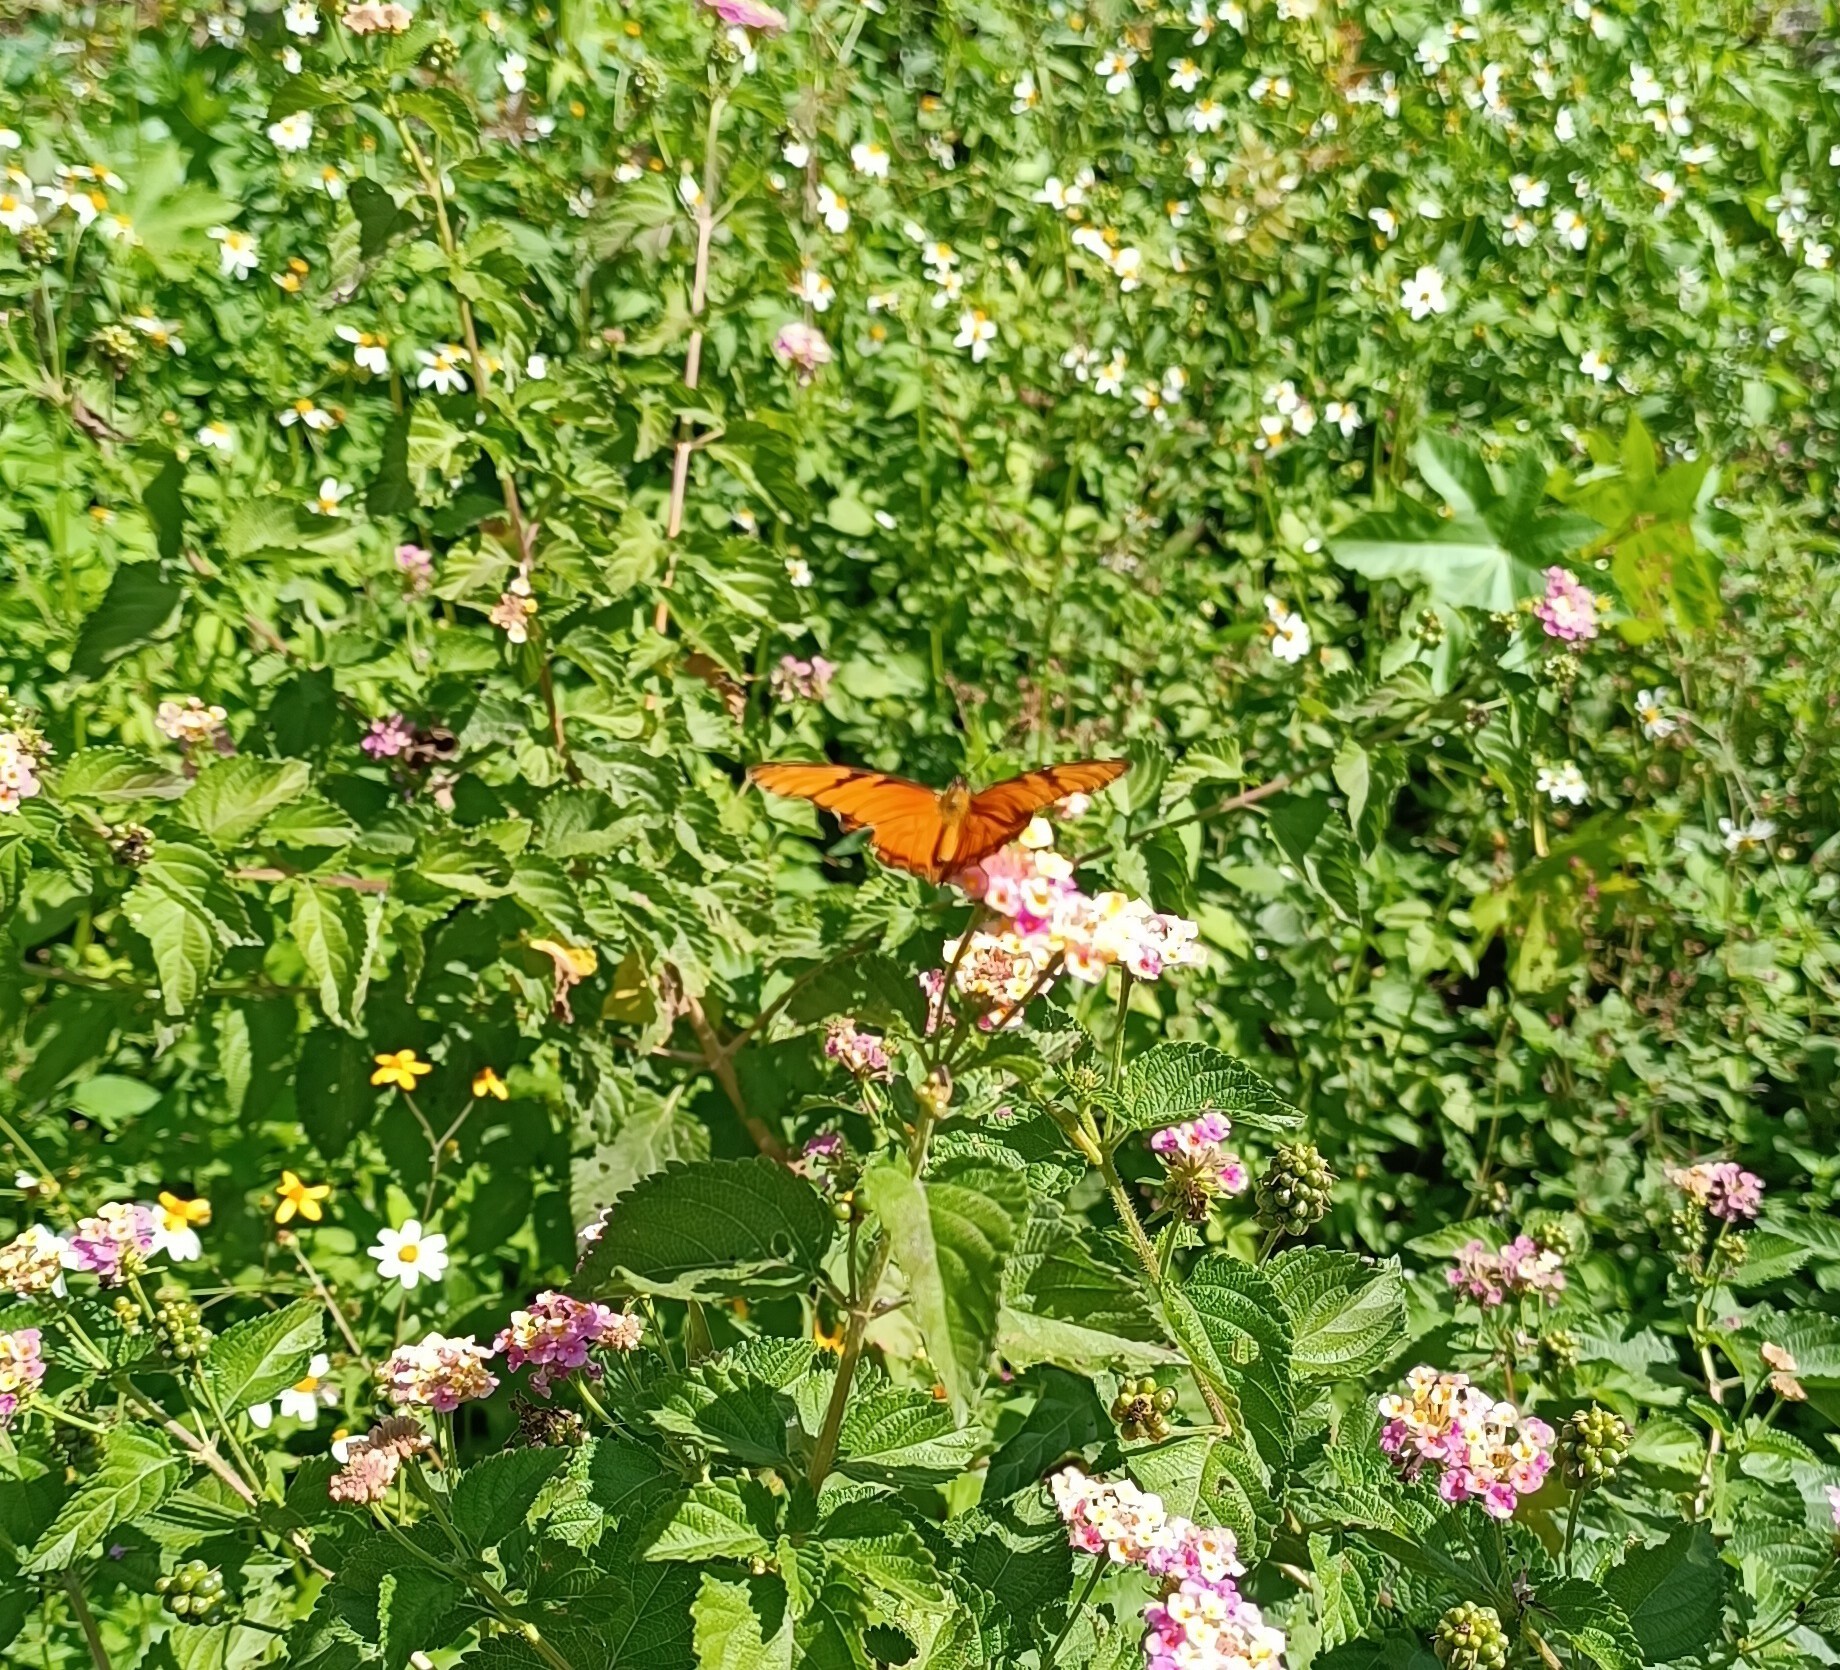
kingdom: Animalia
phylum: Arthropoda
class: Insecta
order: Lepidoptera
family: Nymphalidae
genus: Dione
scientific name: Dione juno
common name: Juno silverspot
